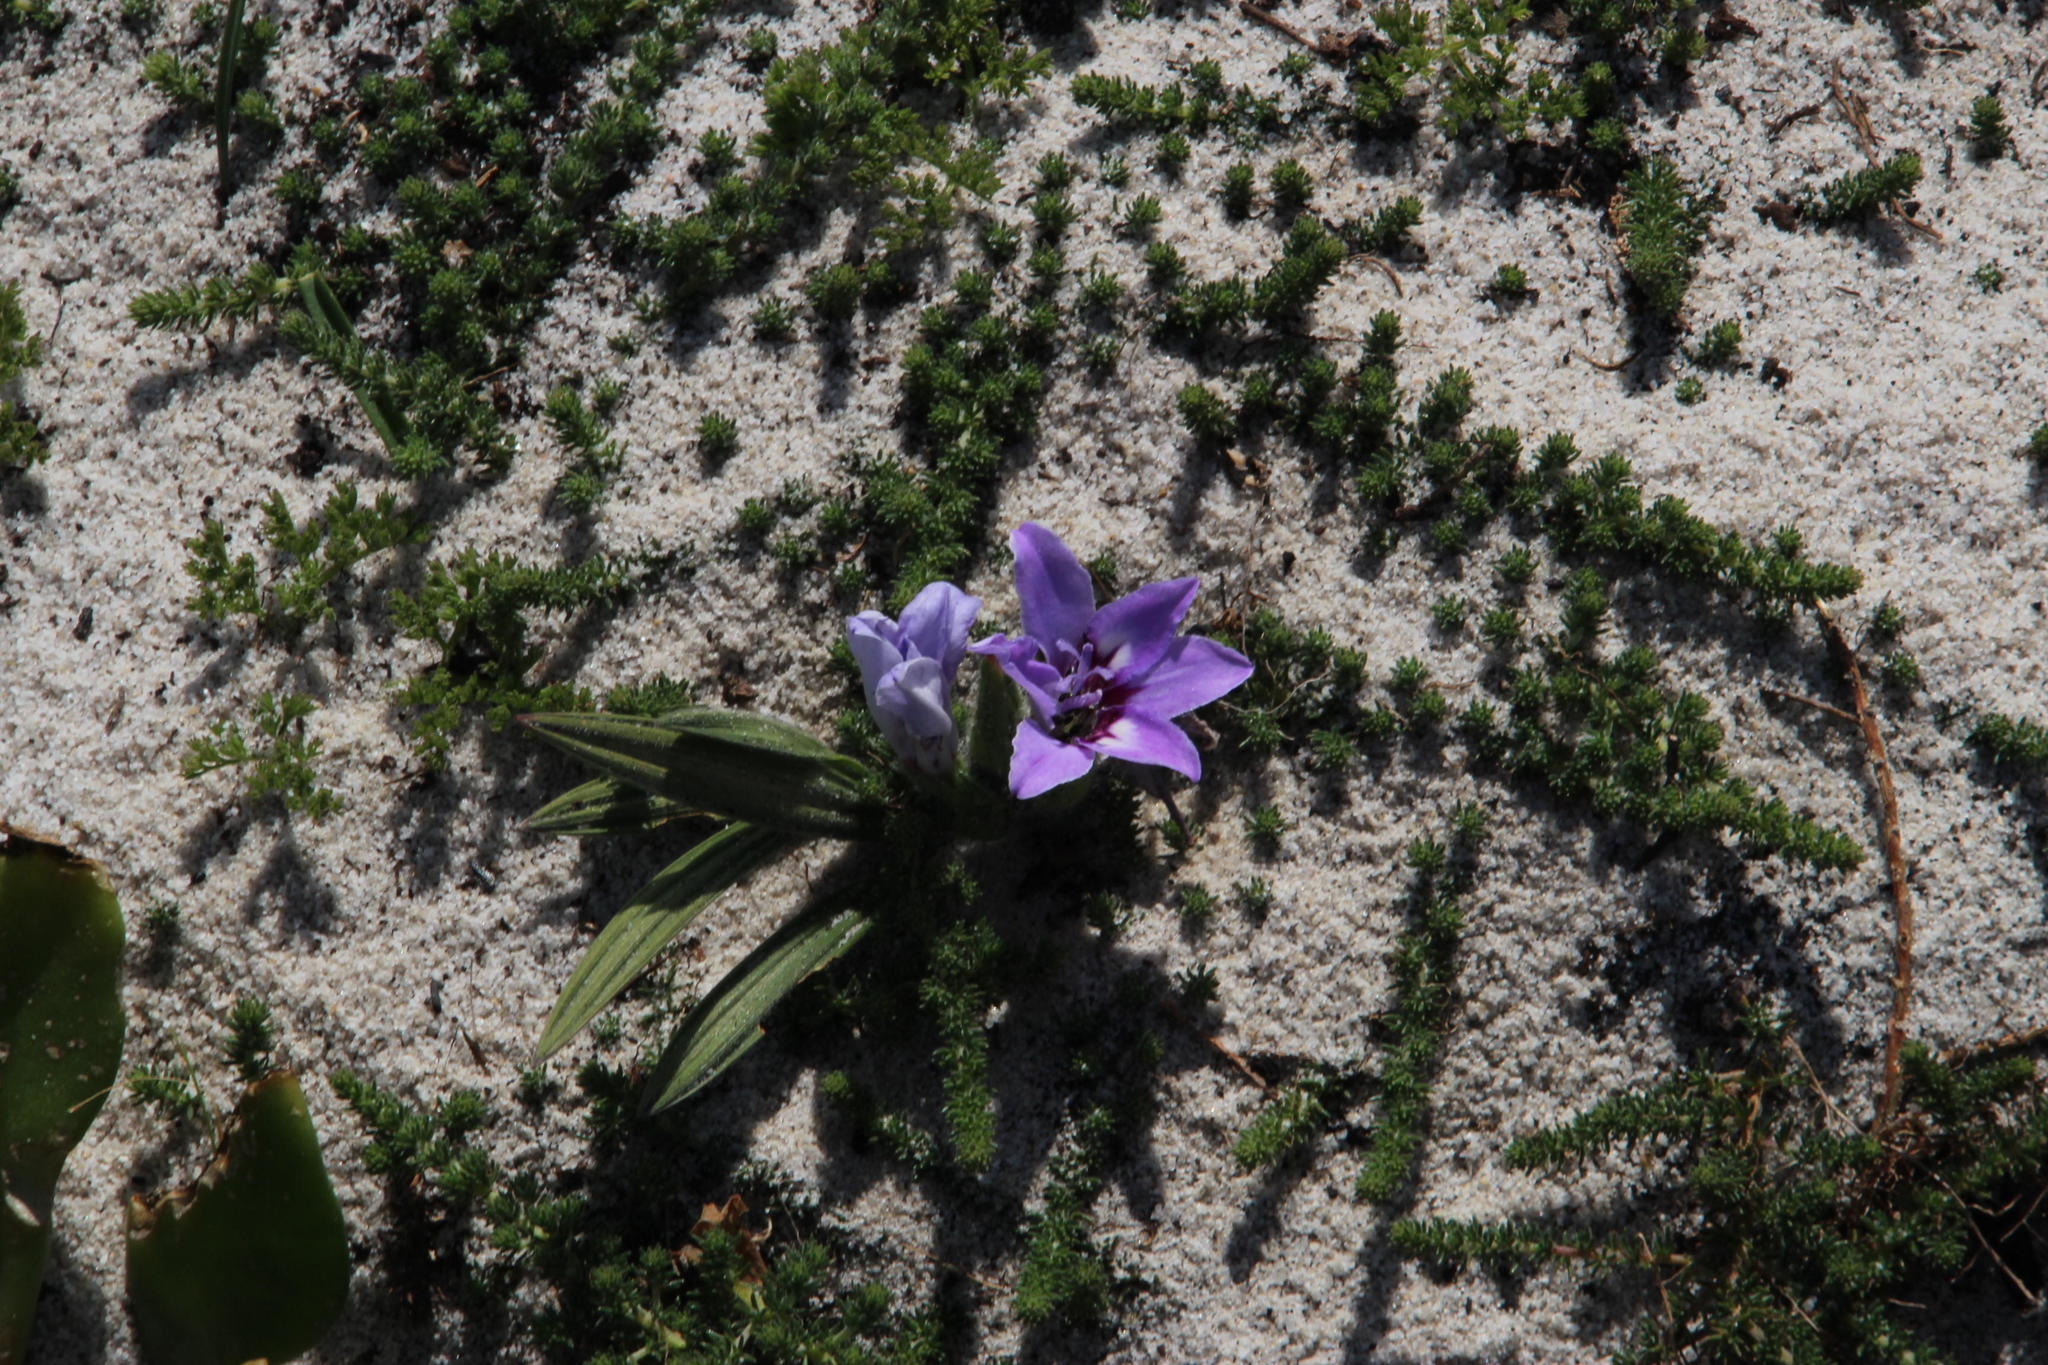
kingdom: Plantae
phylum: Tracheophyta
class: Liliopsida
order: Asparagales
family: Iridaceae
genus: Babiana
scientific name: Babiana ambigua
